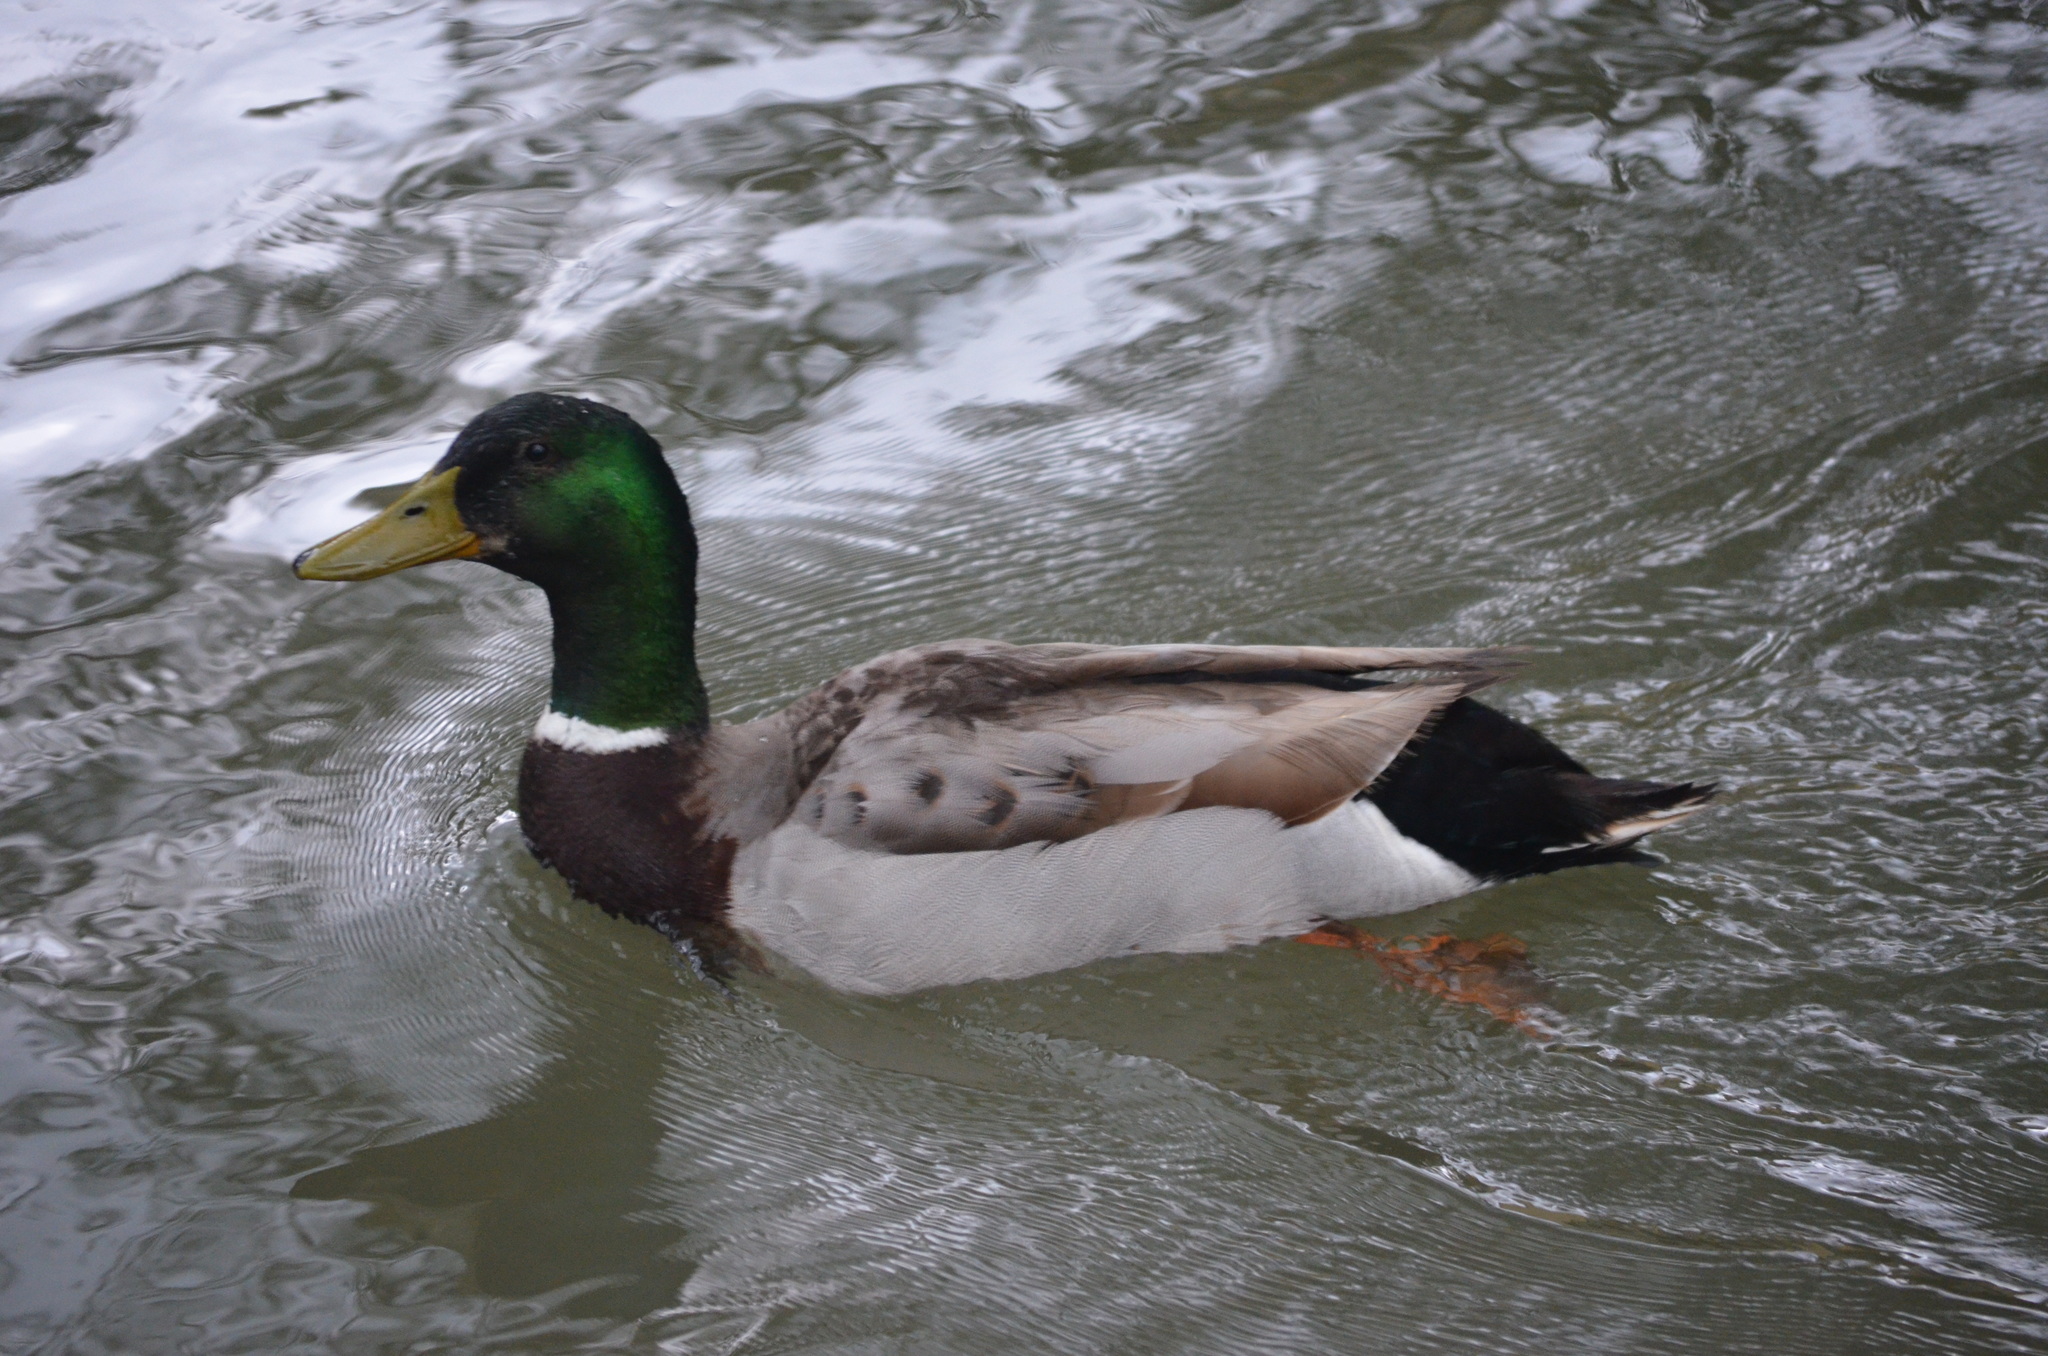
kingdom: Animalia
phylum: Chordata
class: Aves
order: Anseriformes
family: Anatidae
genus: Anas
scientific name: Anas platyrhynchos
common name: Mallard
